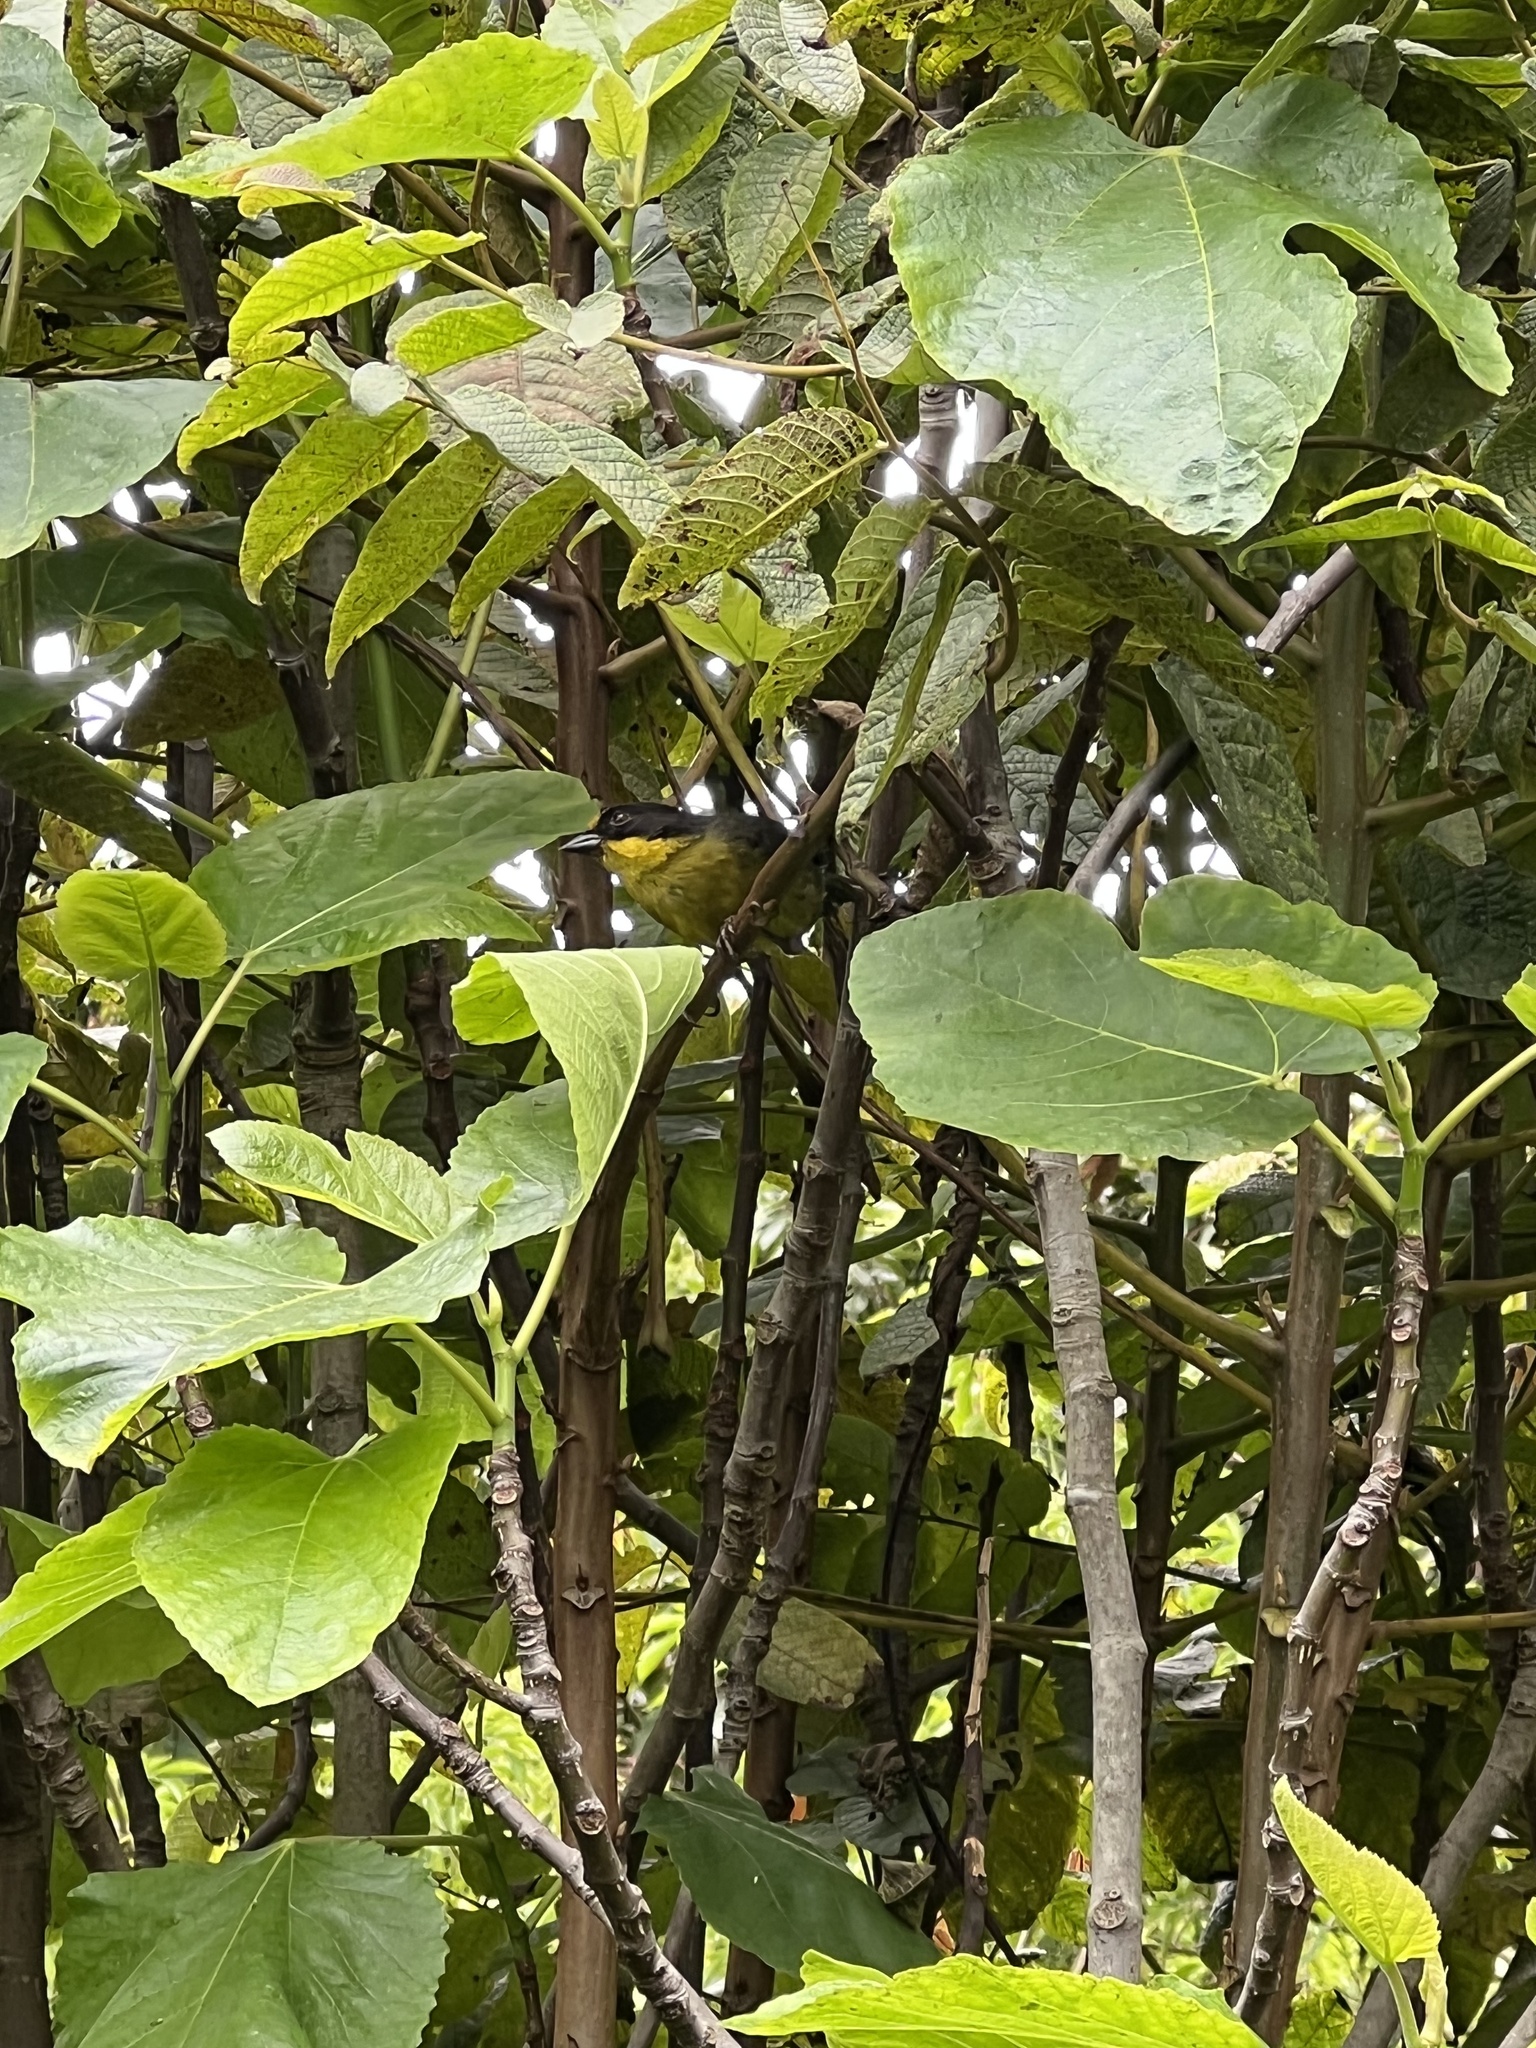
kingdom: Animalia
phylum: Chordata
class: Aves
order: Passeriformes
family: Passerellidae
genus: Atlapetes
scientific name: Atlapetes pallidinucha
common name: Pale-naped brushfinch
